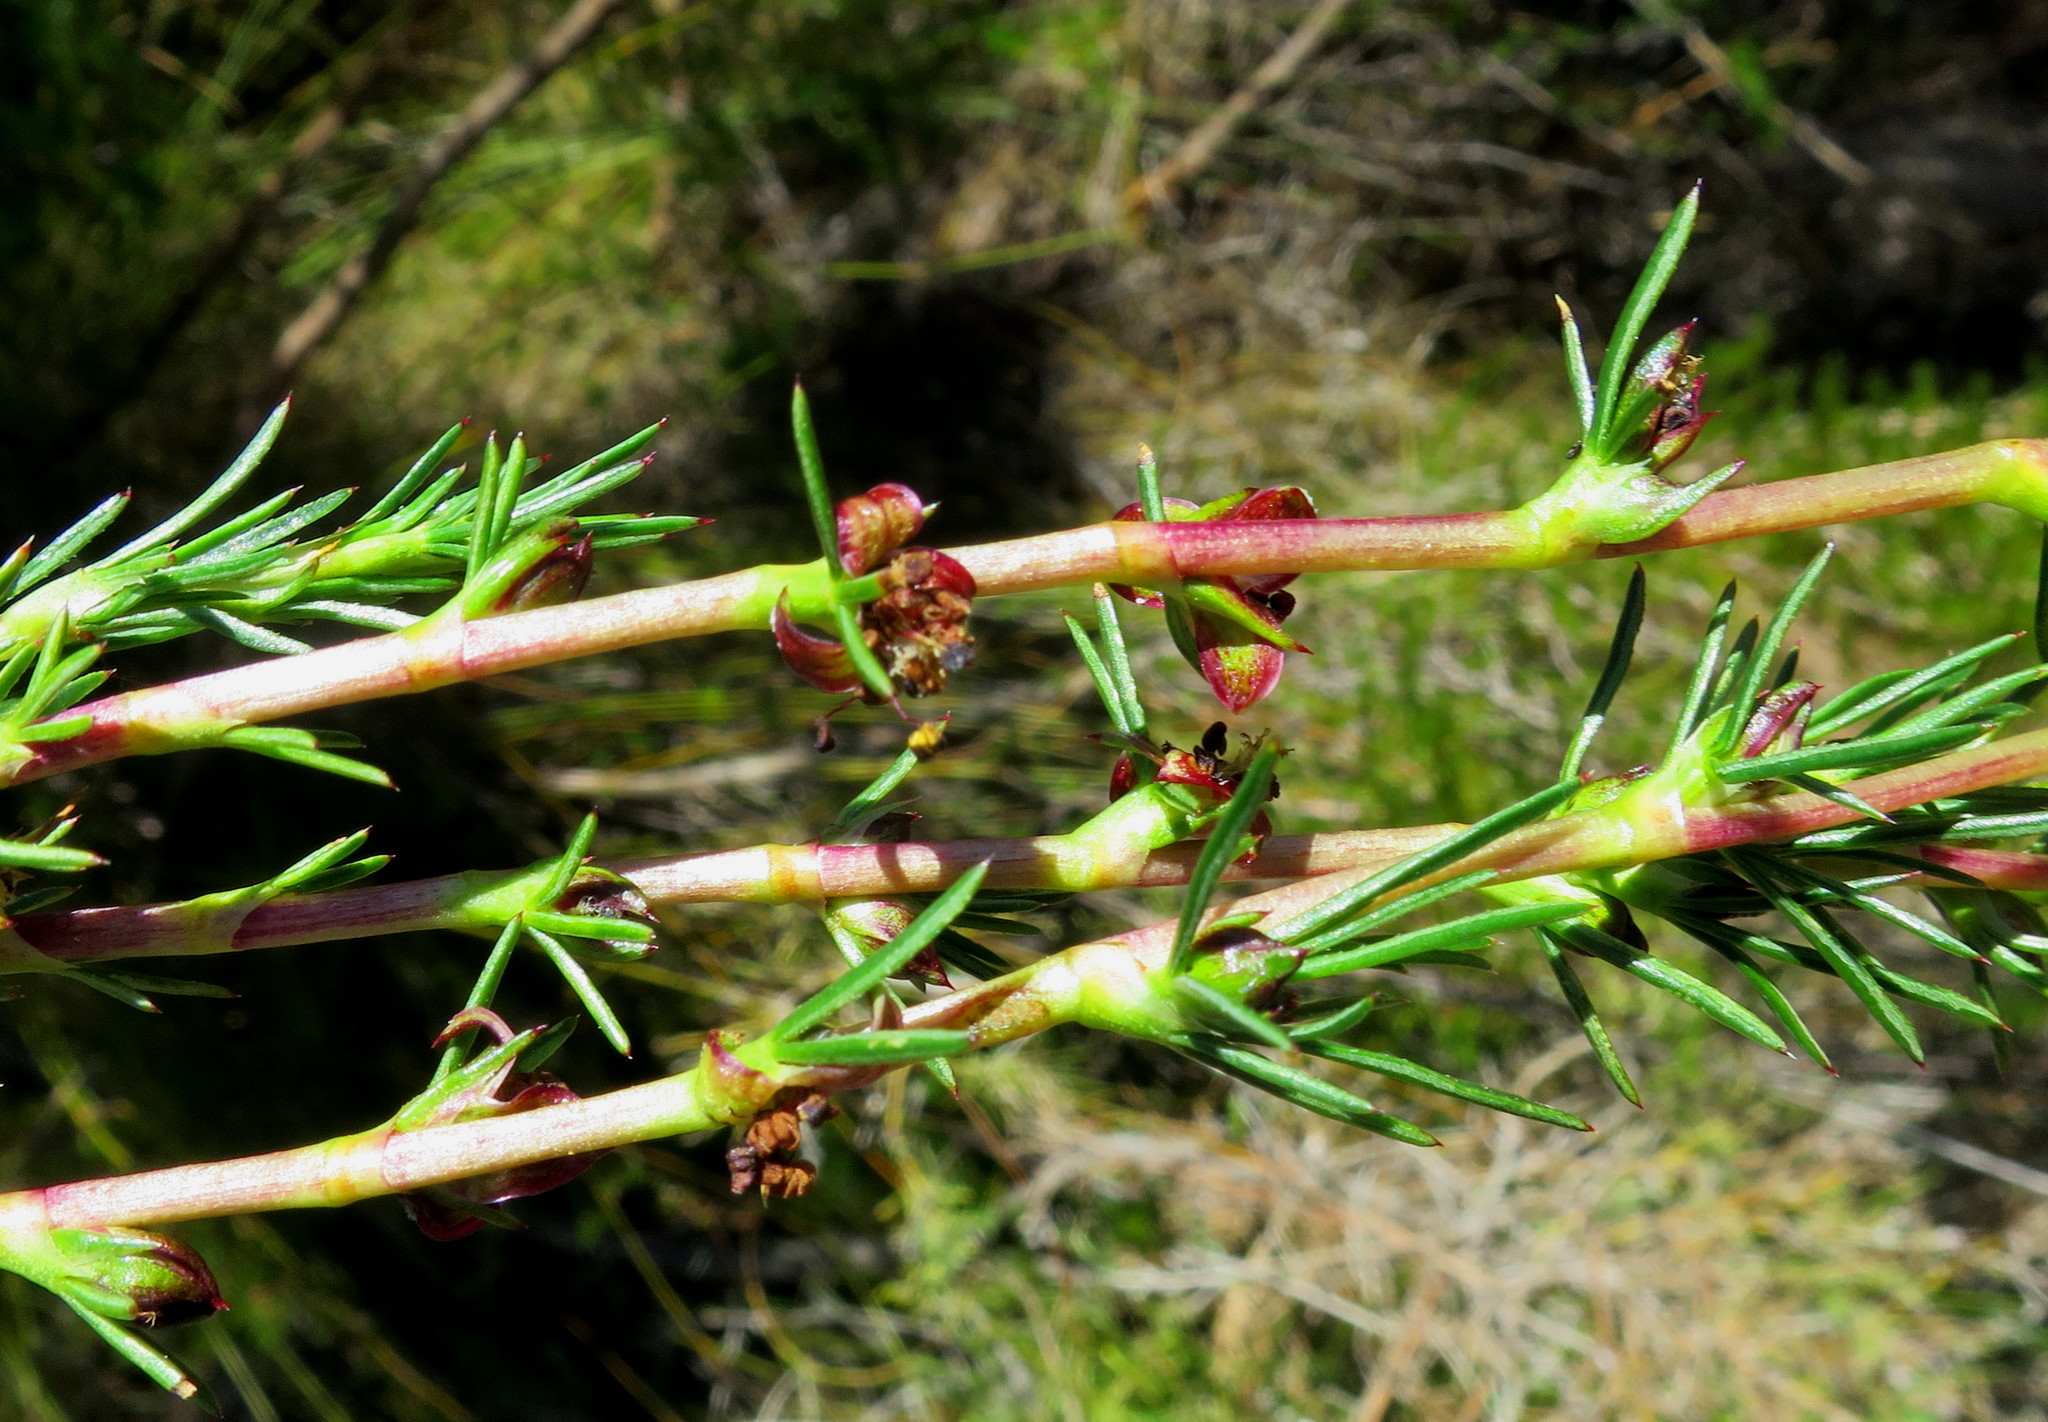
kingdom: Plantae
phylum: Tracheophyta
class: Magnoliopsida
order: Rosales
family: Rosaceae
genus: Cliffortia
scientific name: Cliffortia burchellii
